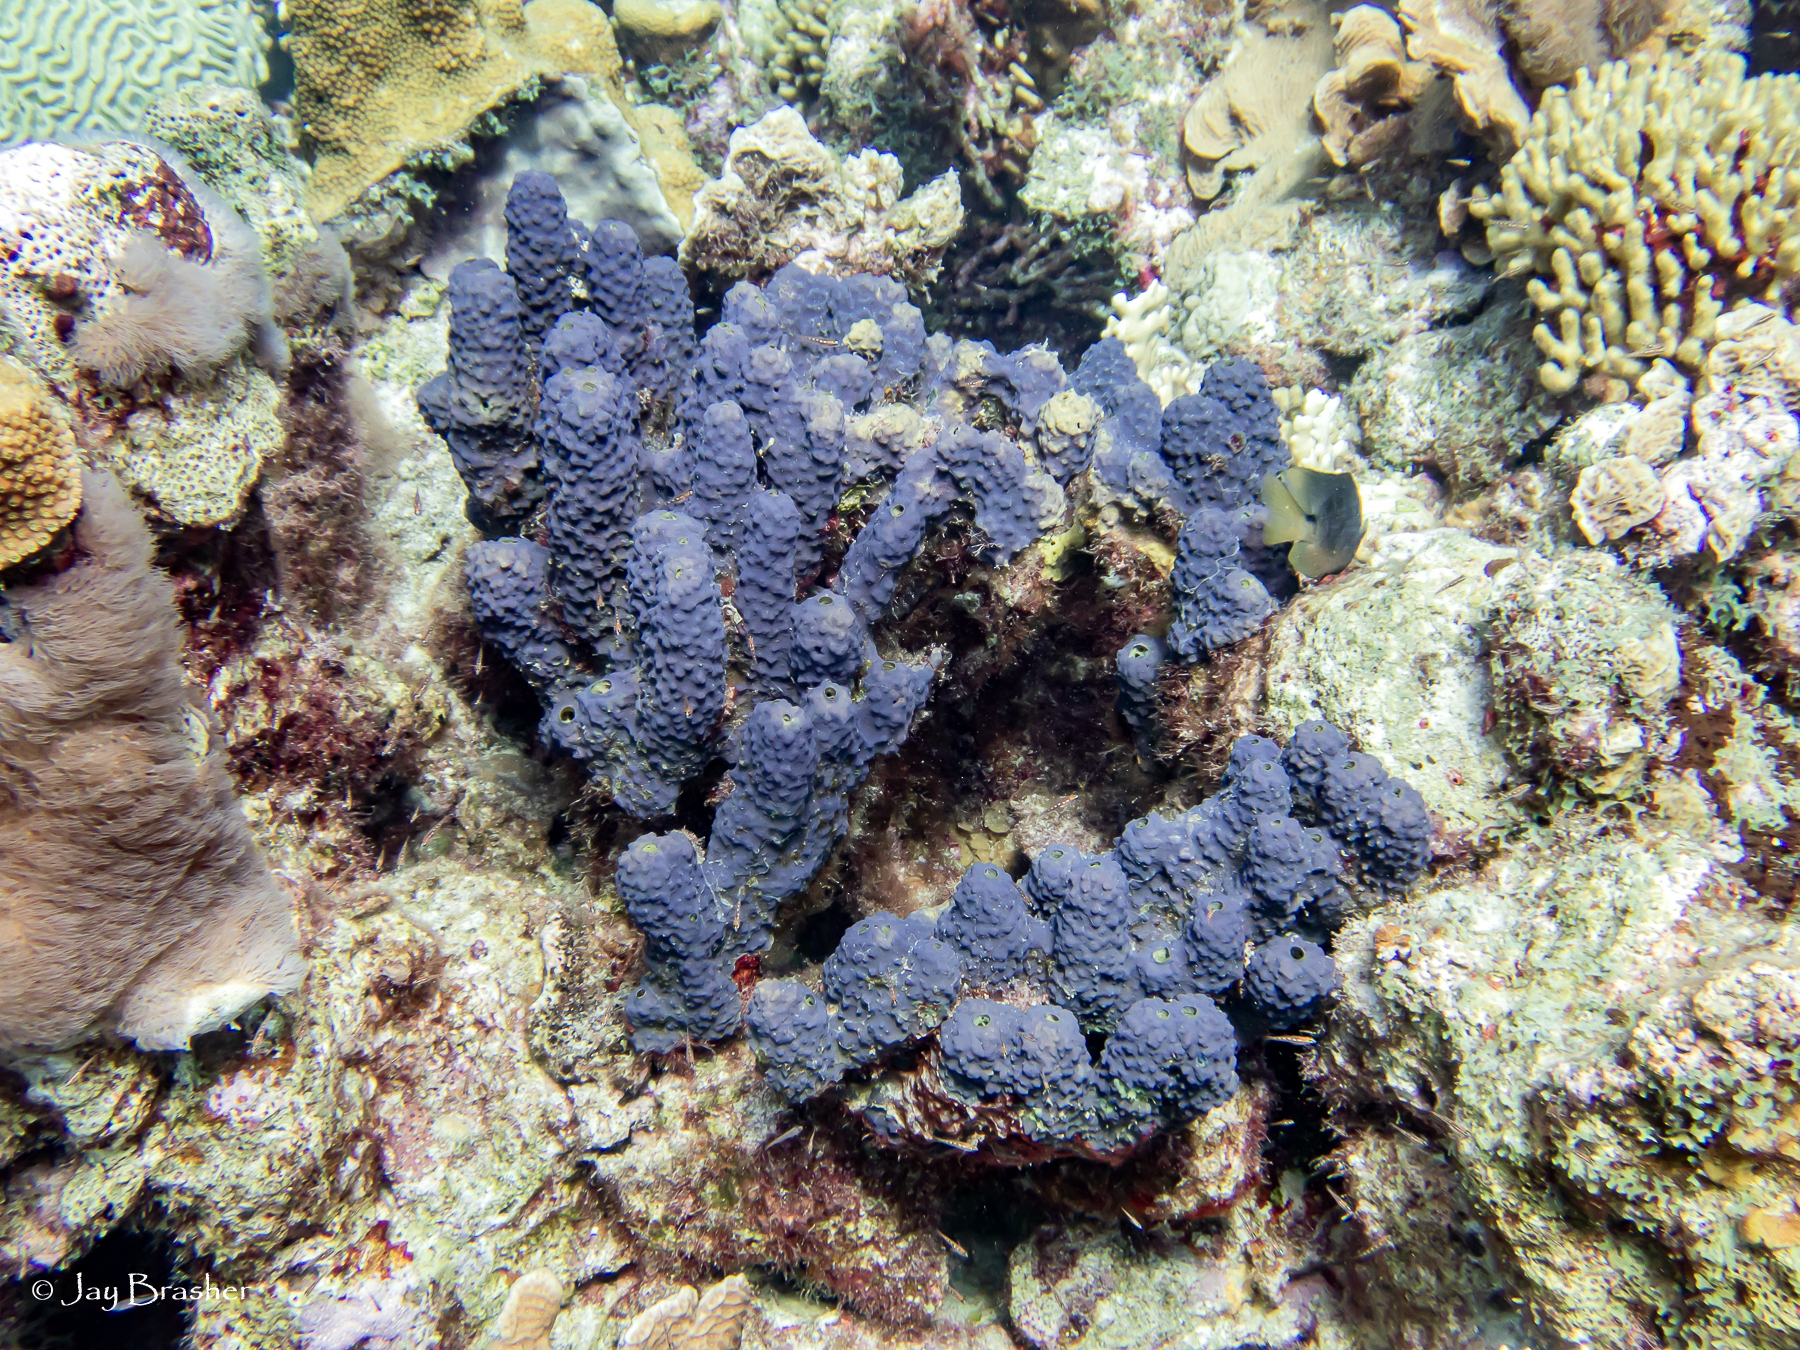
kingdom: Animalia
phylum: Porifera
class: Demospongiae
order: Verongiida
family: Aplysinidae
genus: Aiolochroia
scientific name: Aiolochroia crassa
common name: Branching tube sponge
